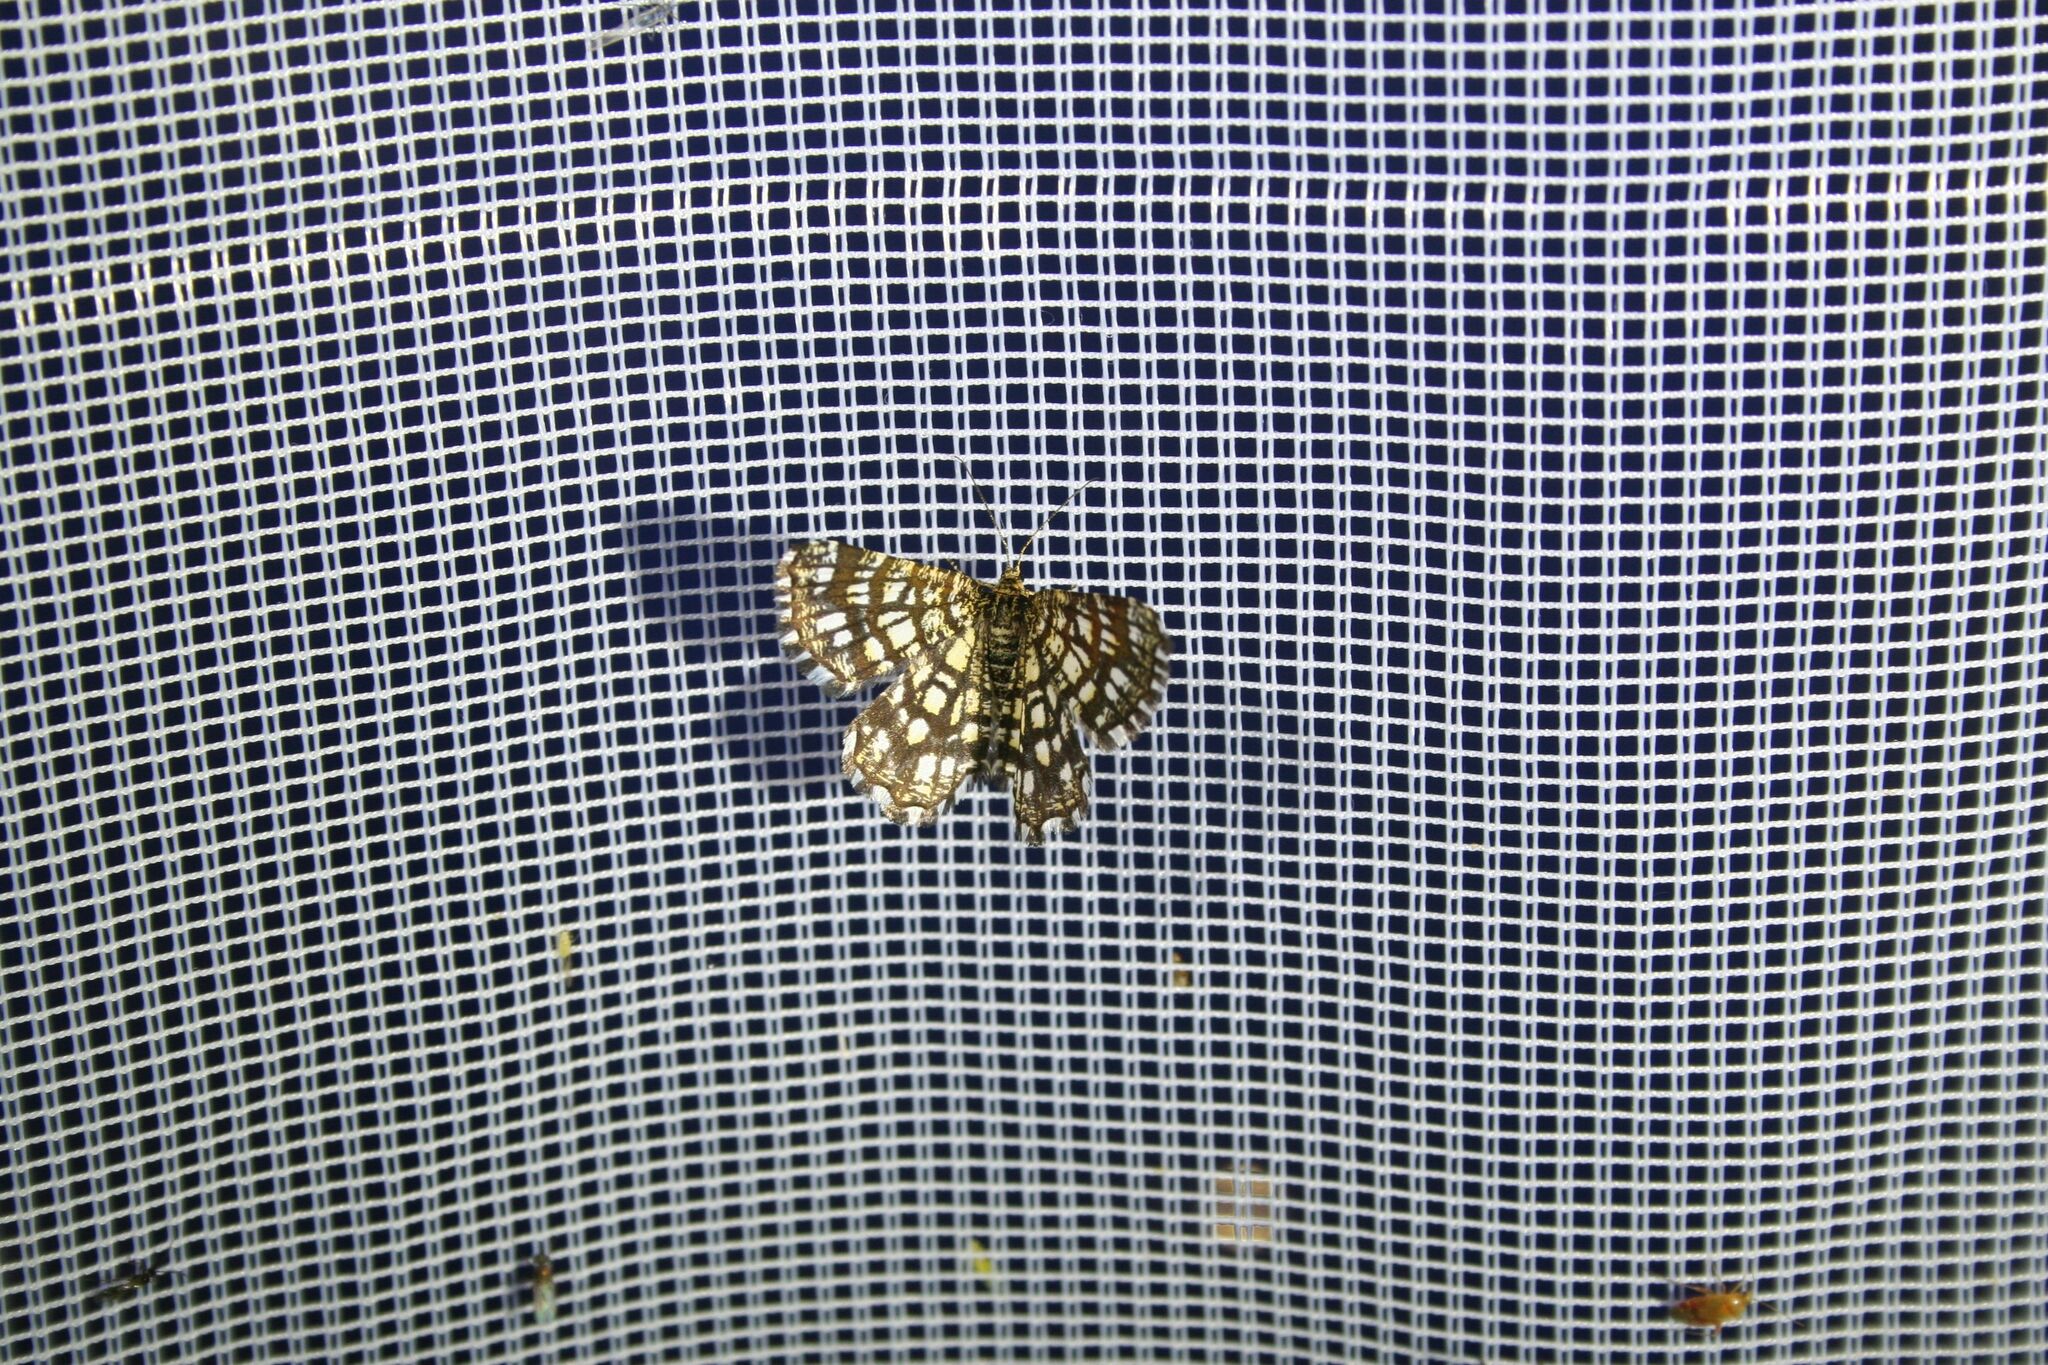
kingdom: Animalia
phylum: Arthropoda
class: Insecta
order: Lepidoptera
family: Geometridae
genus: Chiasmia
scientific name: Chiasmia clathrata
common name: Latticed heath
